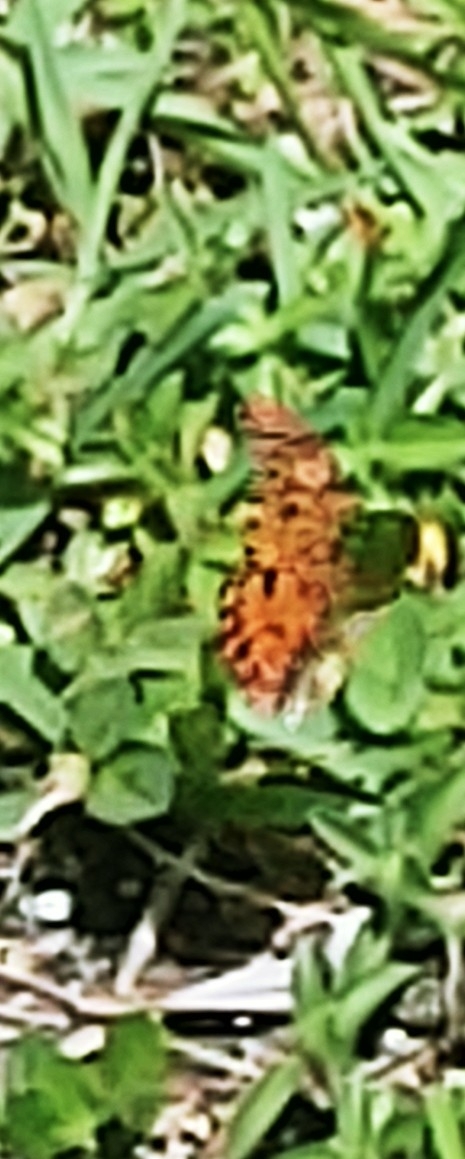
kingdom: Animalia
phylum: Arthropoda
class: Insecta
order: Lepidoptera
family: Nymphalidae
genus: Dione
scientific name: Dione vanillae
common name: Gulf fritillary
